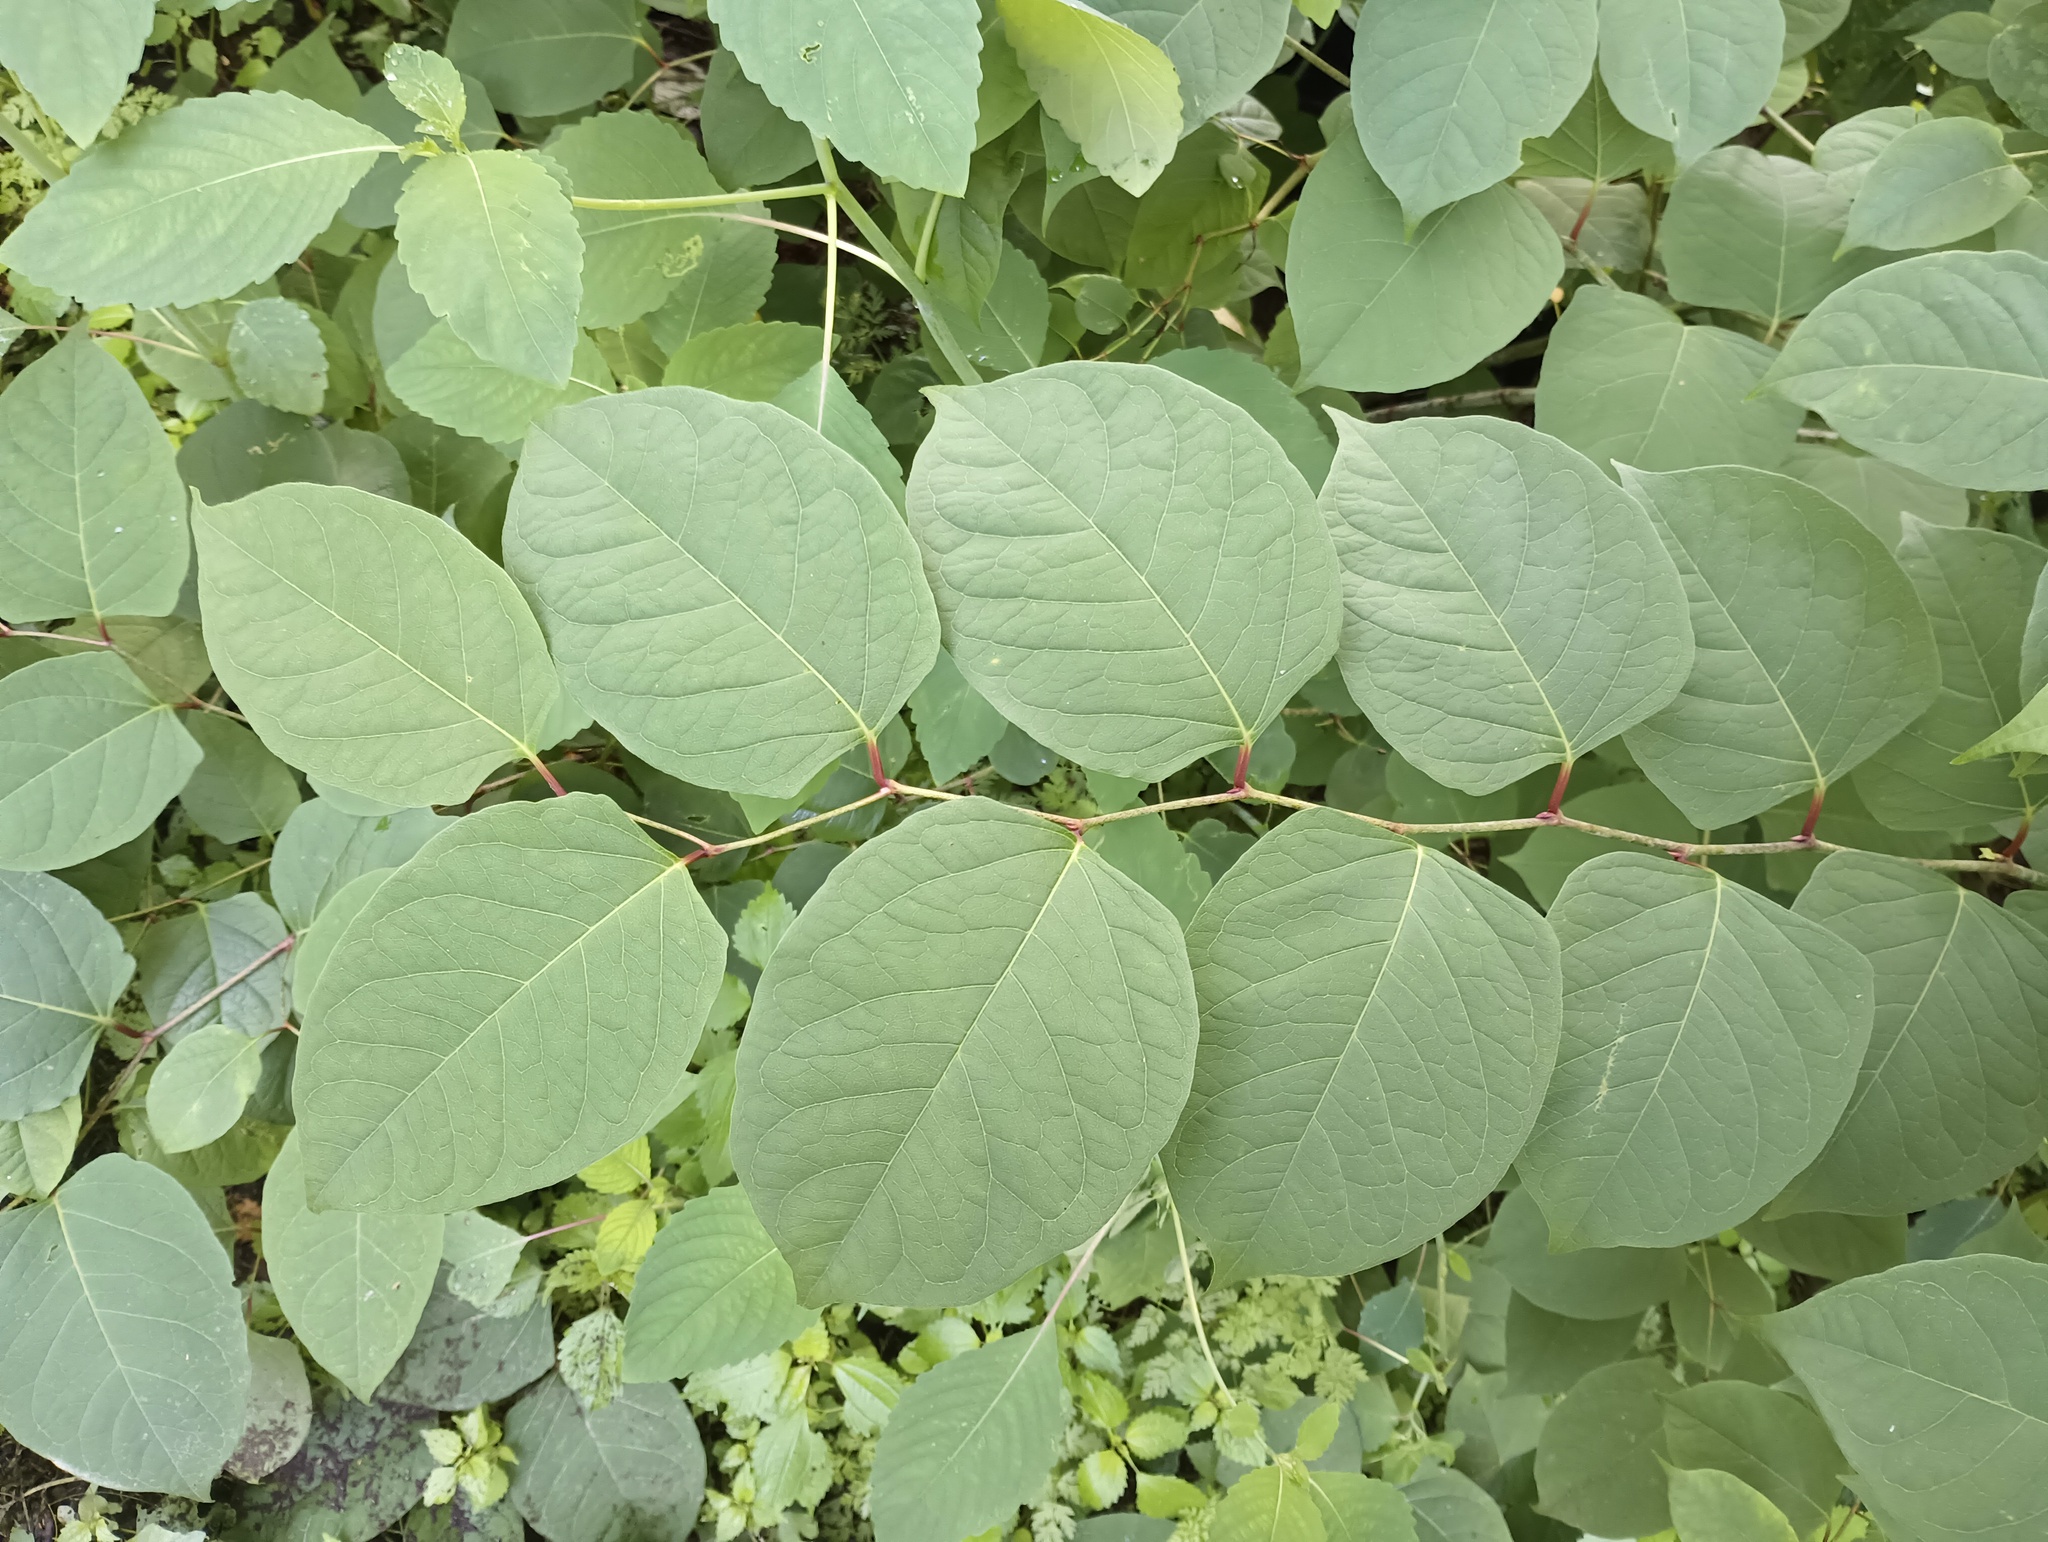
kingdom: Plantae
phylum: Tracheophyta
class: Magnoliopsida
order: Caryophyllales
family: Polygonaceae
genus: Reynoutria
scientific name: Reynoutria japonica
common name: Japanese knotweed
